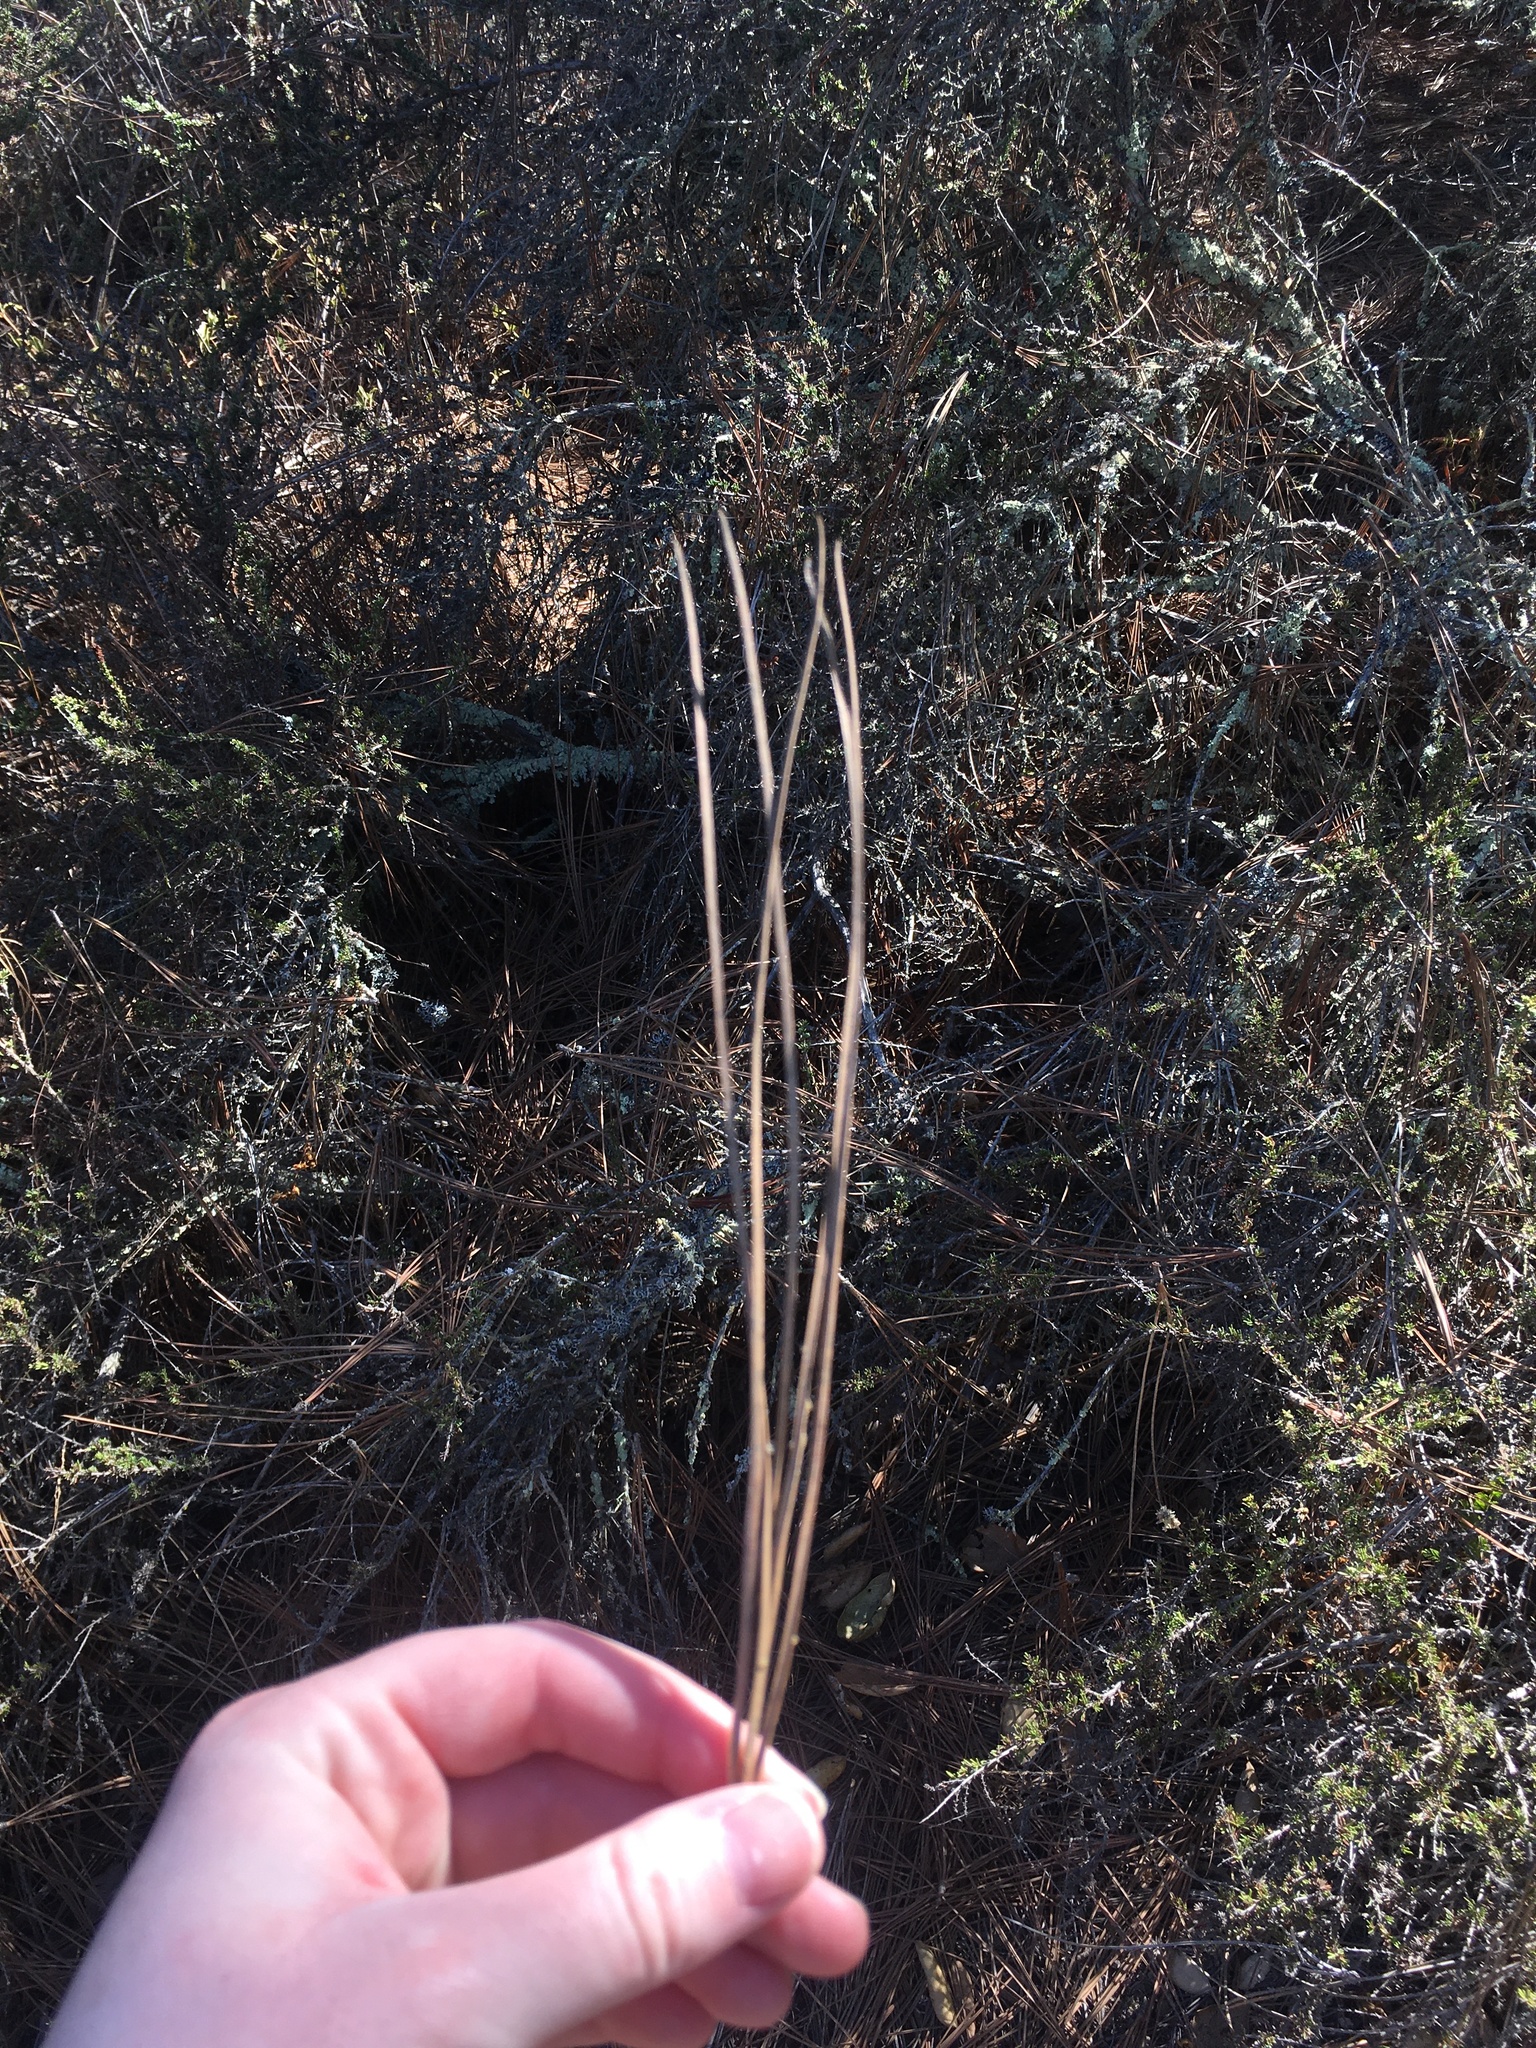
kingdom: Plantae
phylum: Tracheophyta
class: Pinopsida
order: Pinales
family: Pinaceae
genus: Pinus
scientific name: Pinus torreyana
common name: Torrey pine
